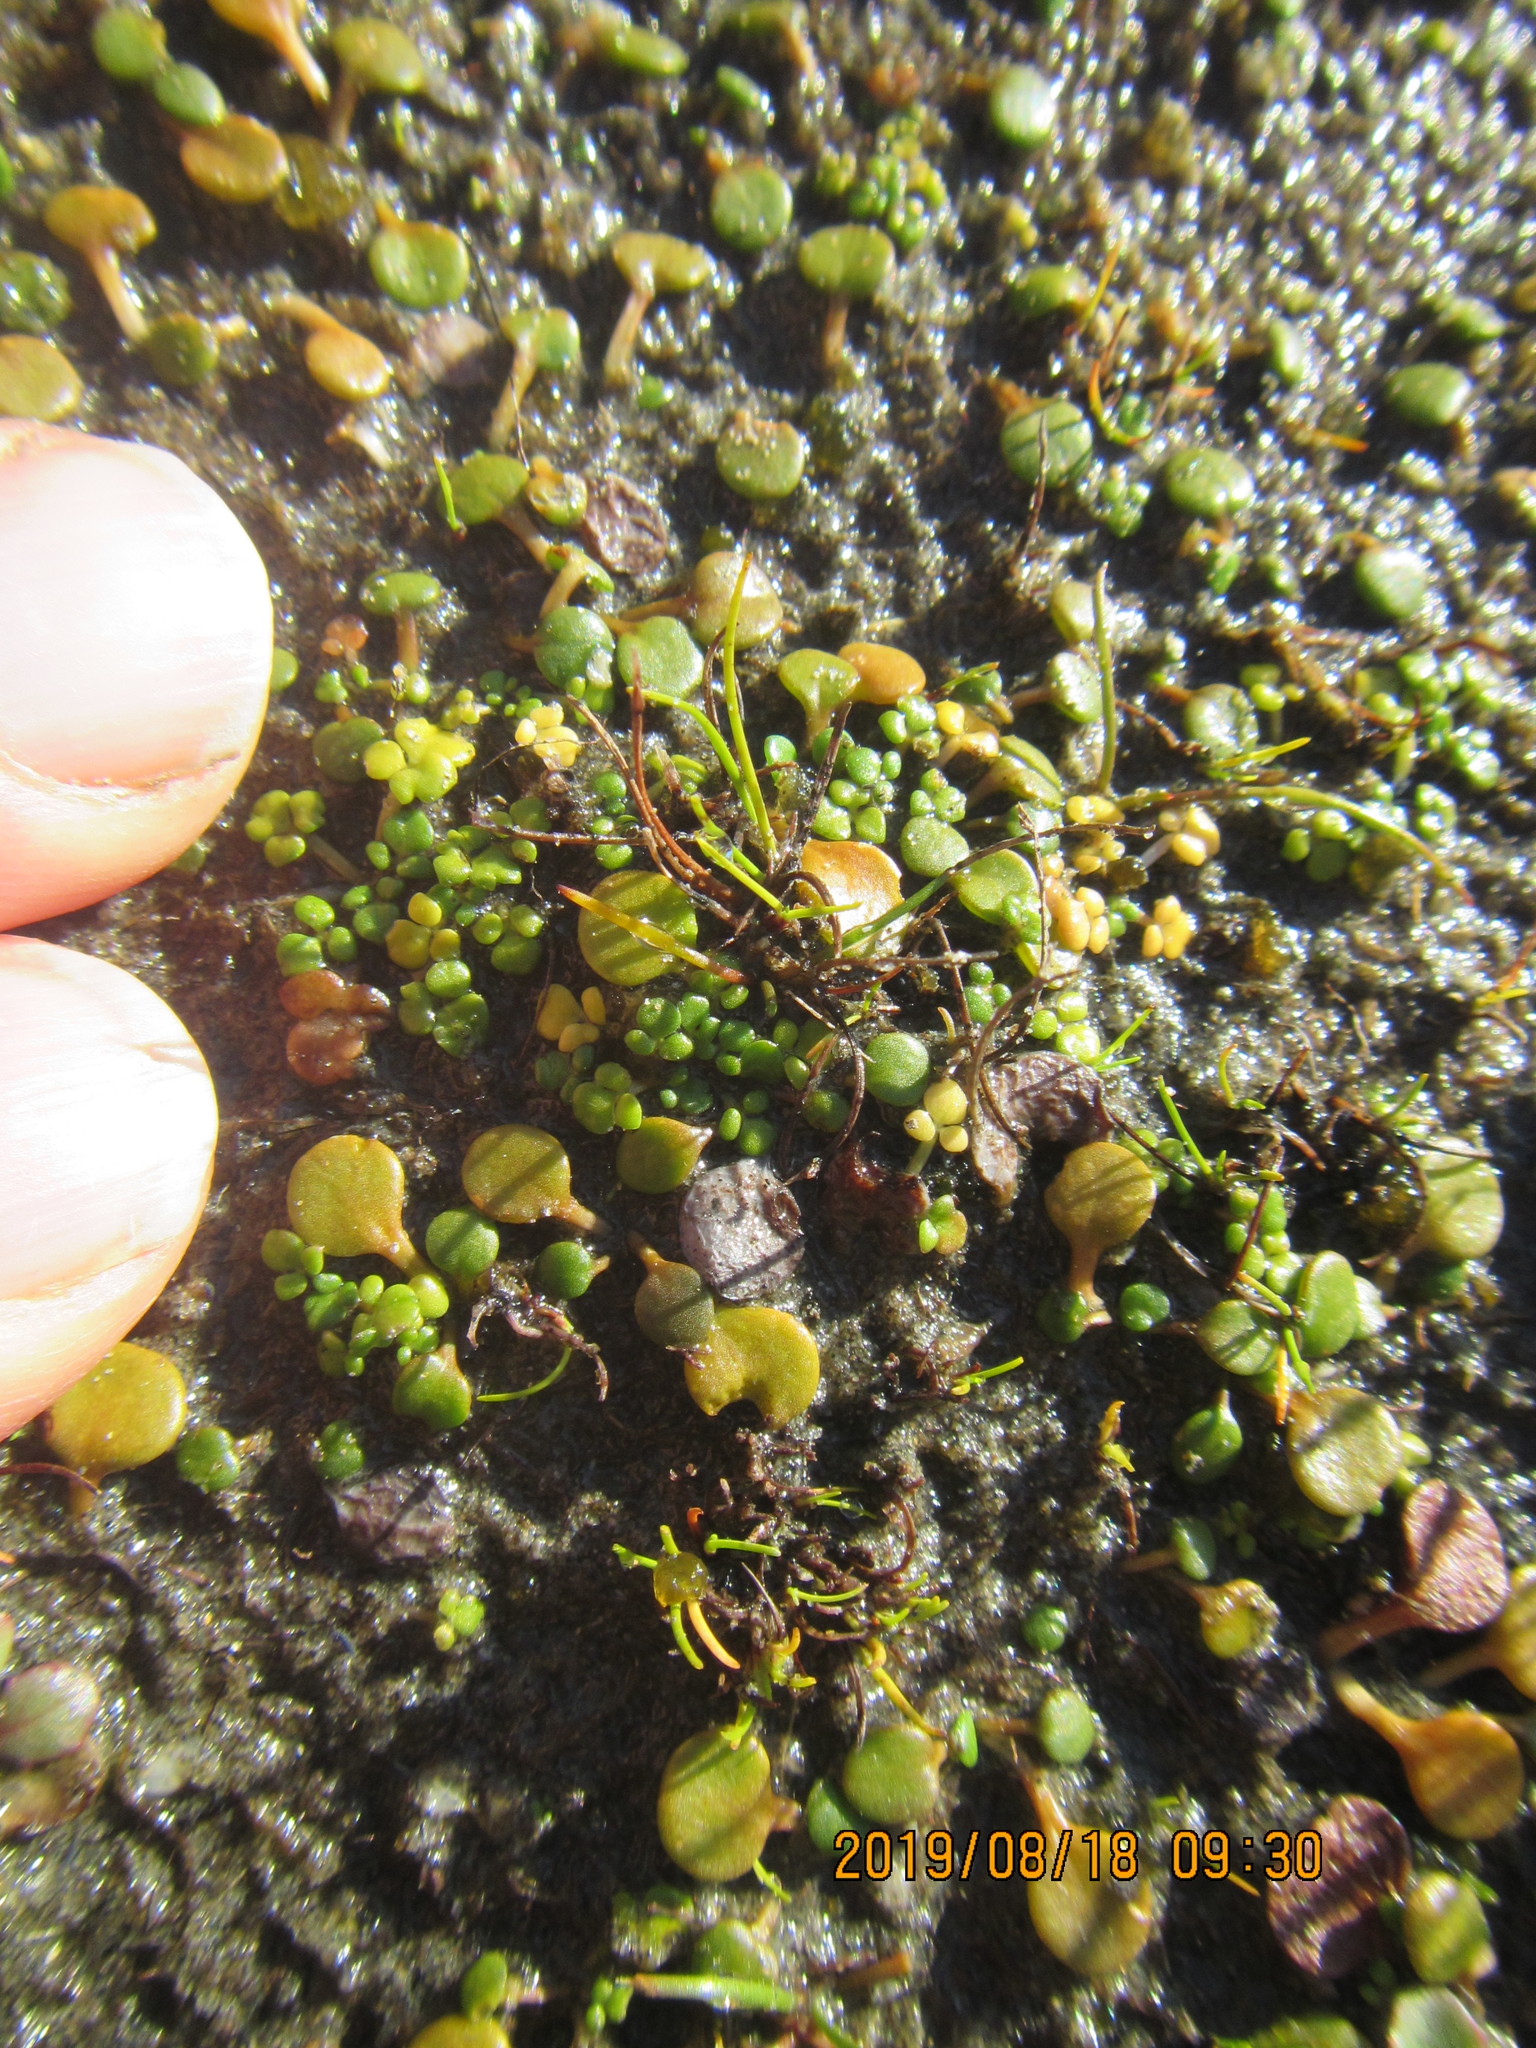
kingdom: Plantae
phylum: Tracheophyta
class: Magnoliopsida
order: Ranunculales
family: Ranunculaceae
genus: Ranunculus
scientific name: Ranunculus acaulis
